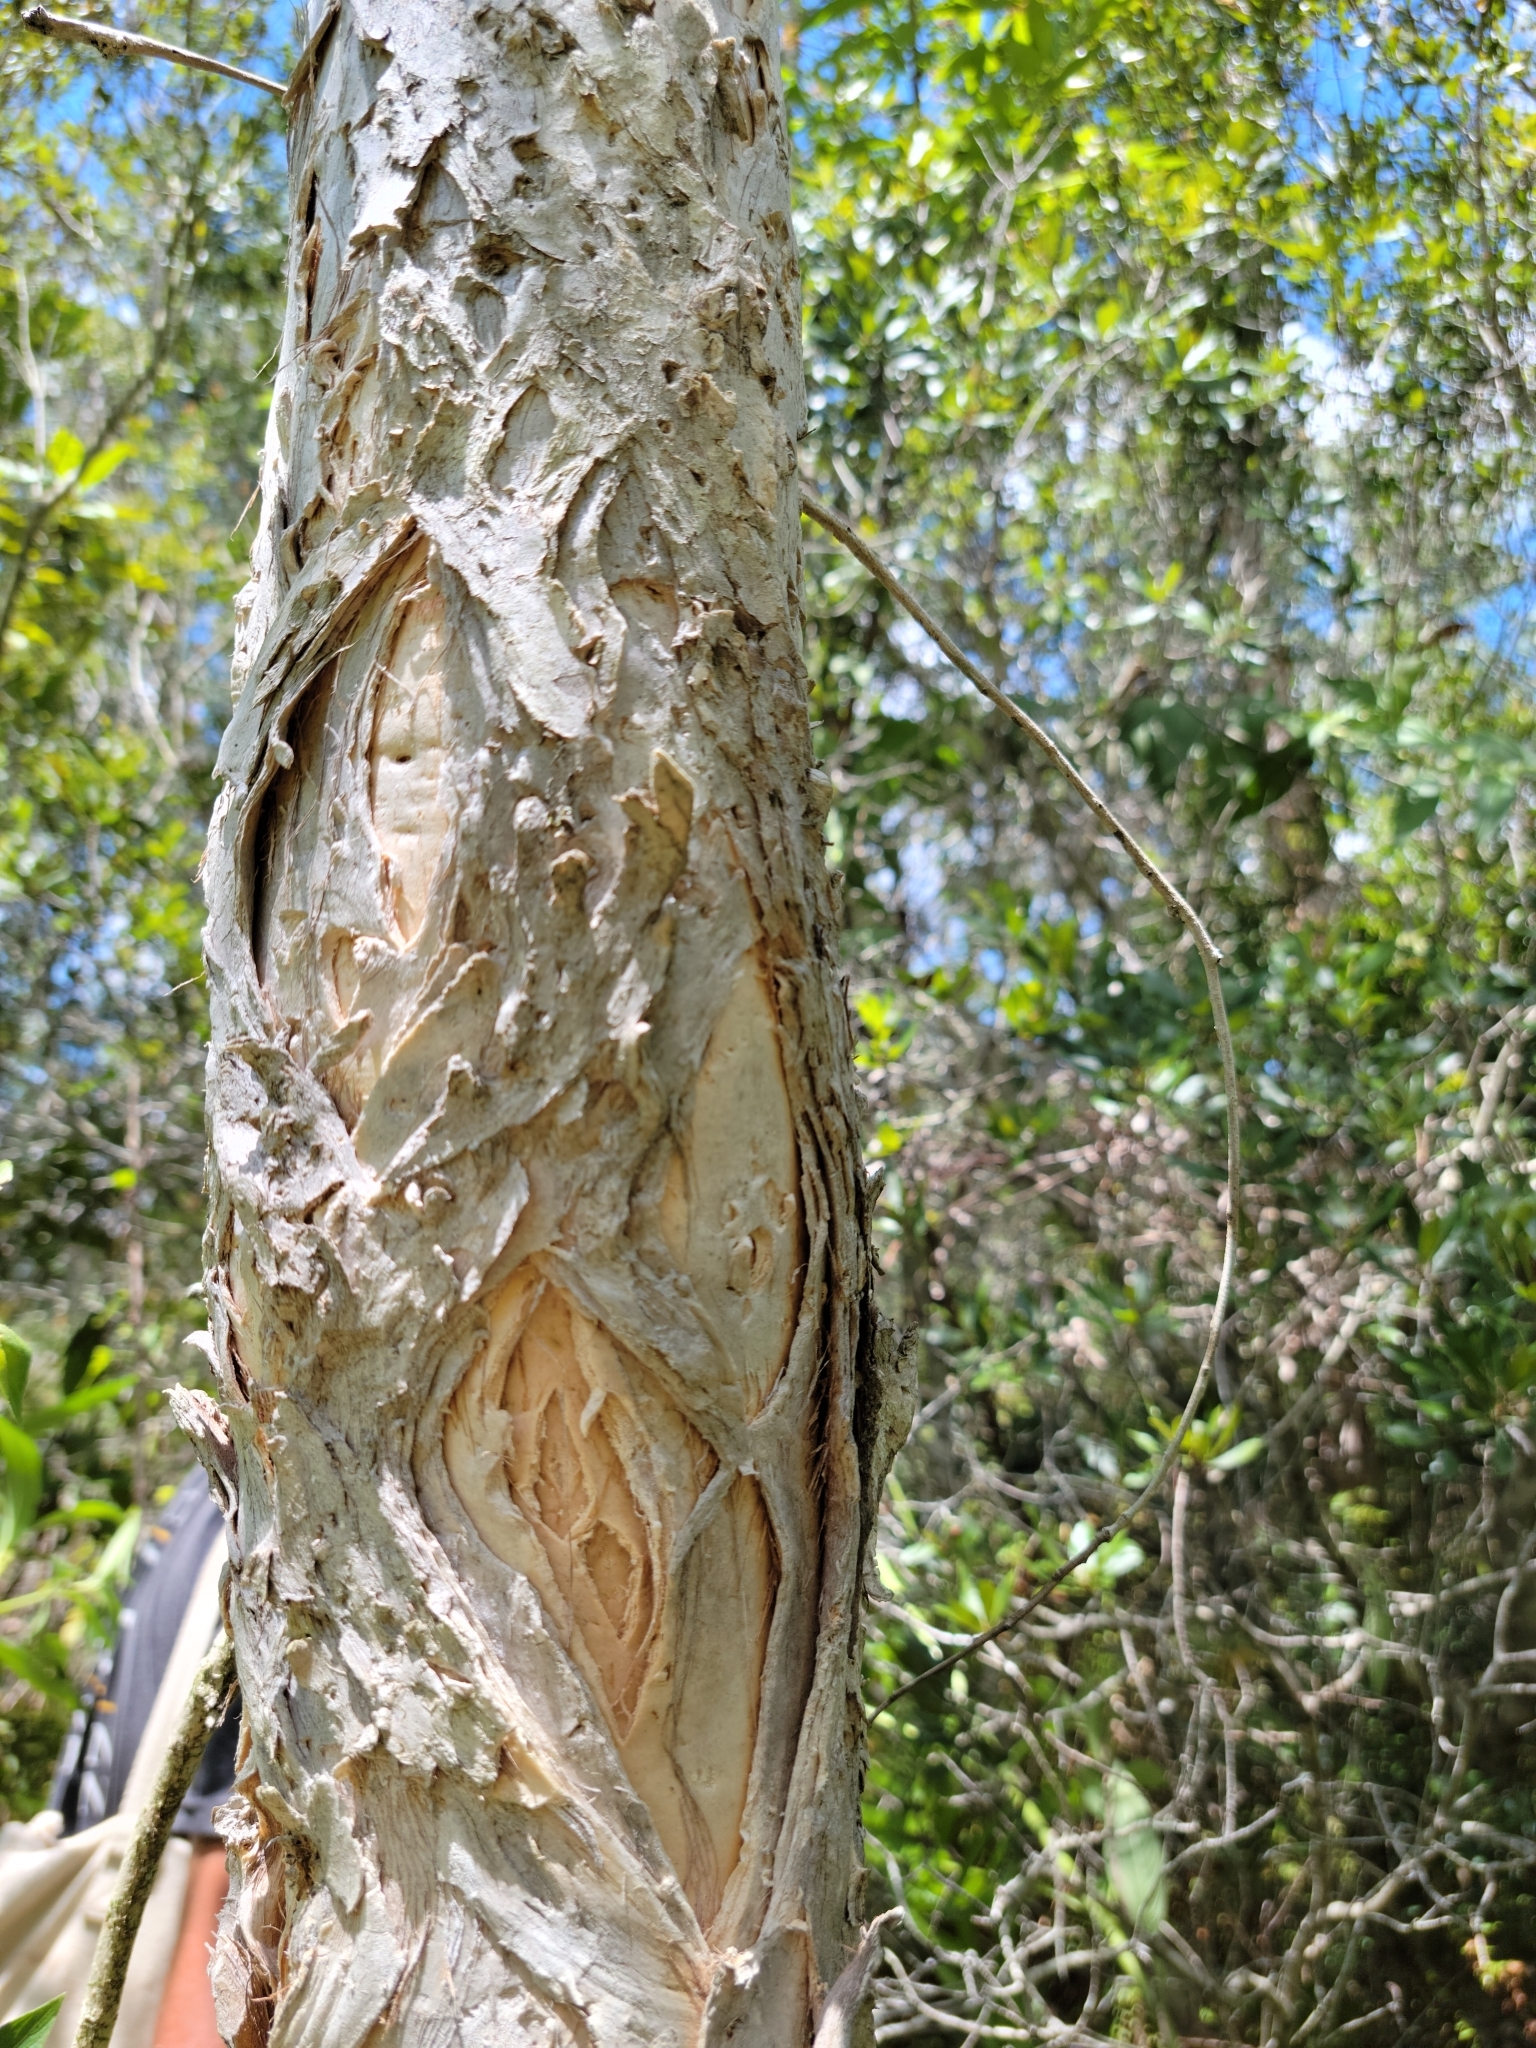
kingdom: Plantae
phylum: Tracheophyta
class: Magnoliopsida
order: Myrtales
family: Myrtaceae
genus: Melaleuca
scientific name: Melaleuca quinquenervia
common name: Punktree
